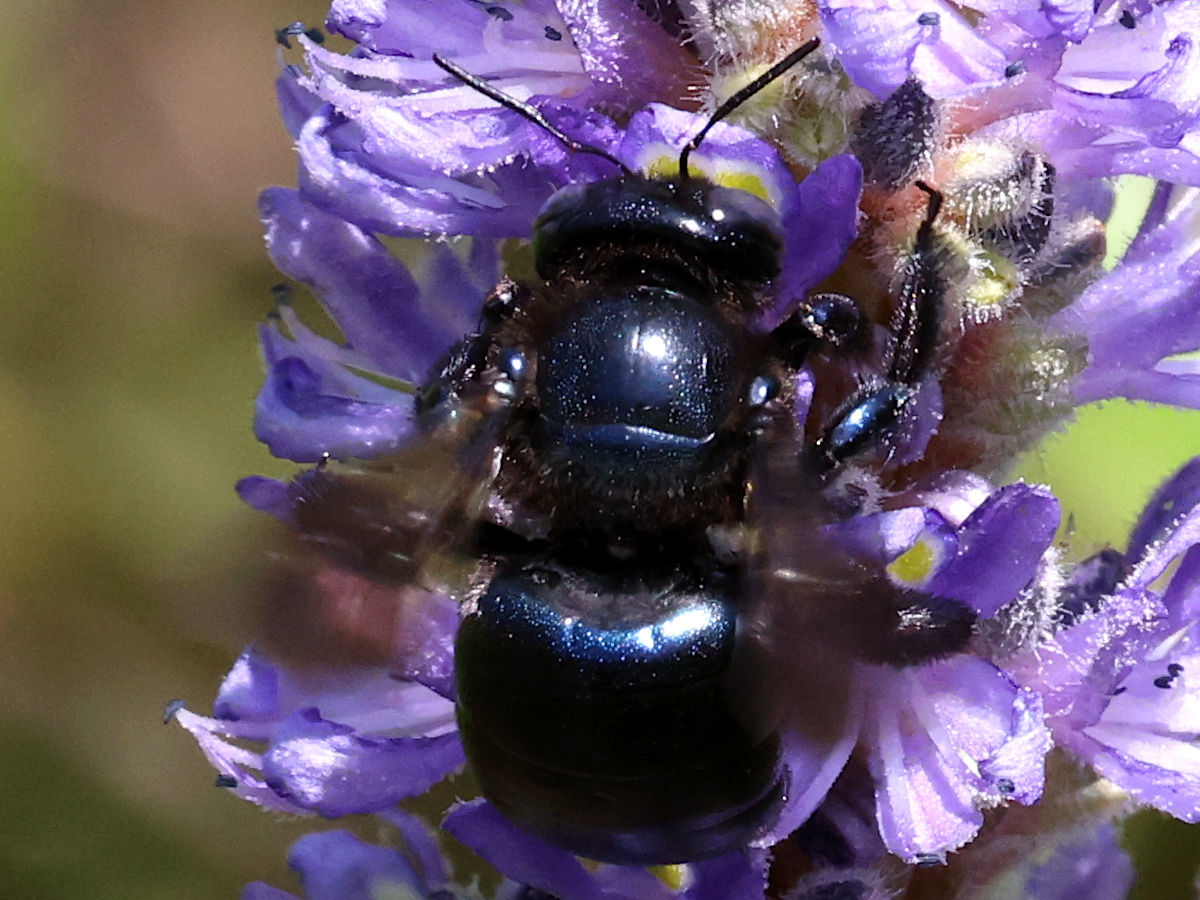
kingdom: Animalia
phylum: Arthropoda
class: Insecta
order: Hymenoptera
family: Apidae
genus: Xylocopa
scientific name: Xylocopa micans
